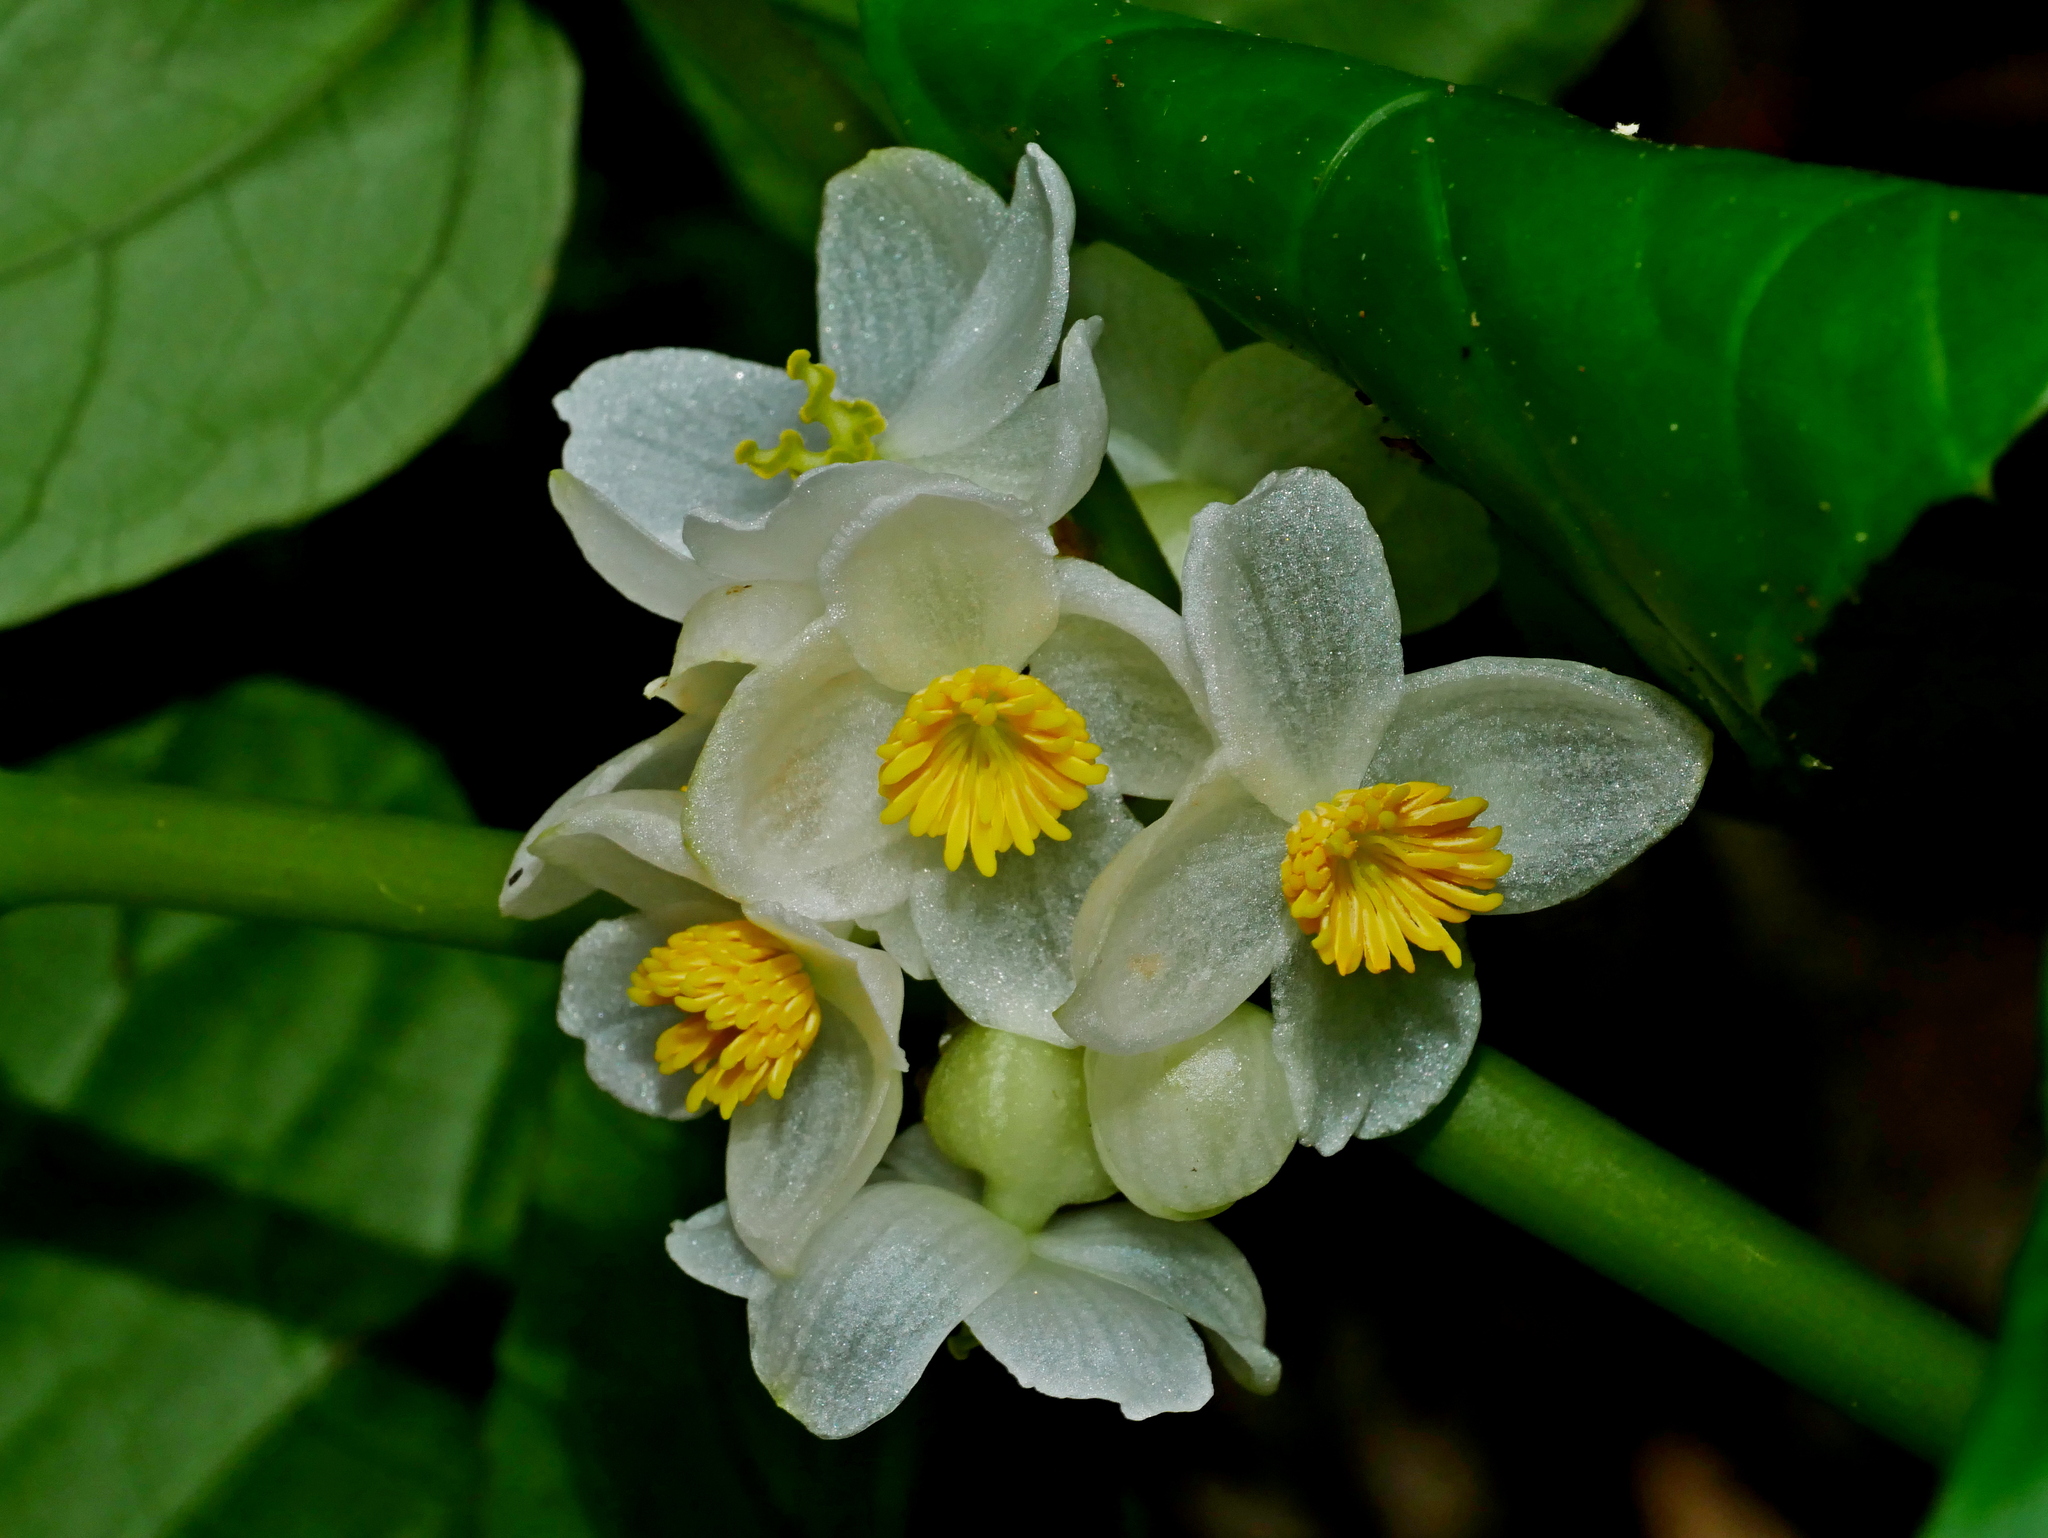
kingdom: Plantae
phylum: Tracheophyta
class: Magnoliopsida
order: Cucurbitales
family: Begoniaceae
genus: Begonia
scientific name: Begonia longifolia
